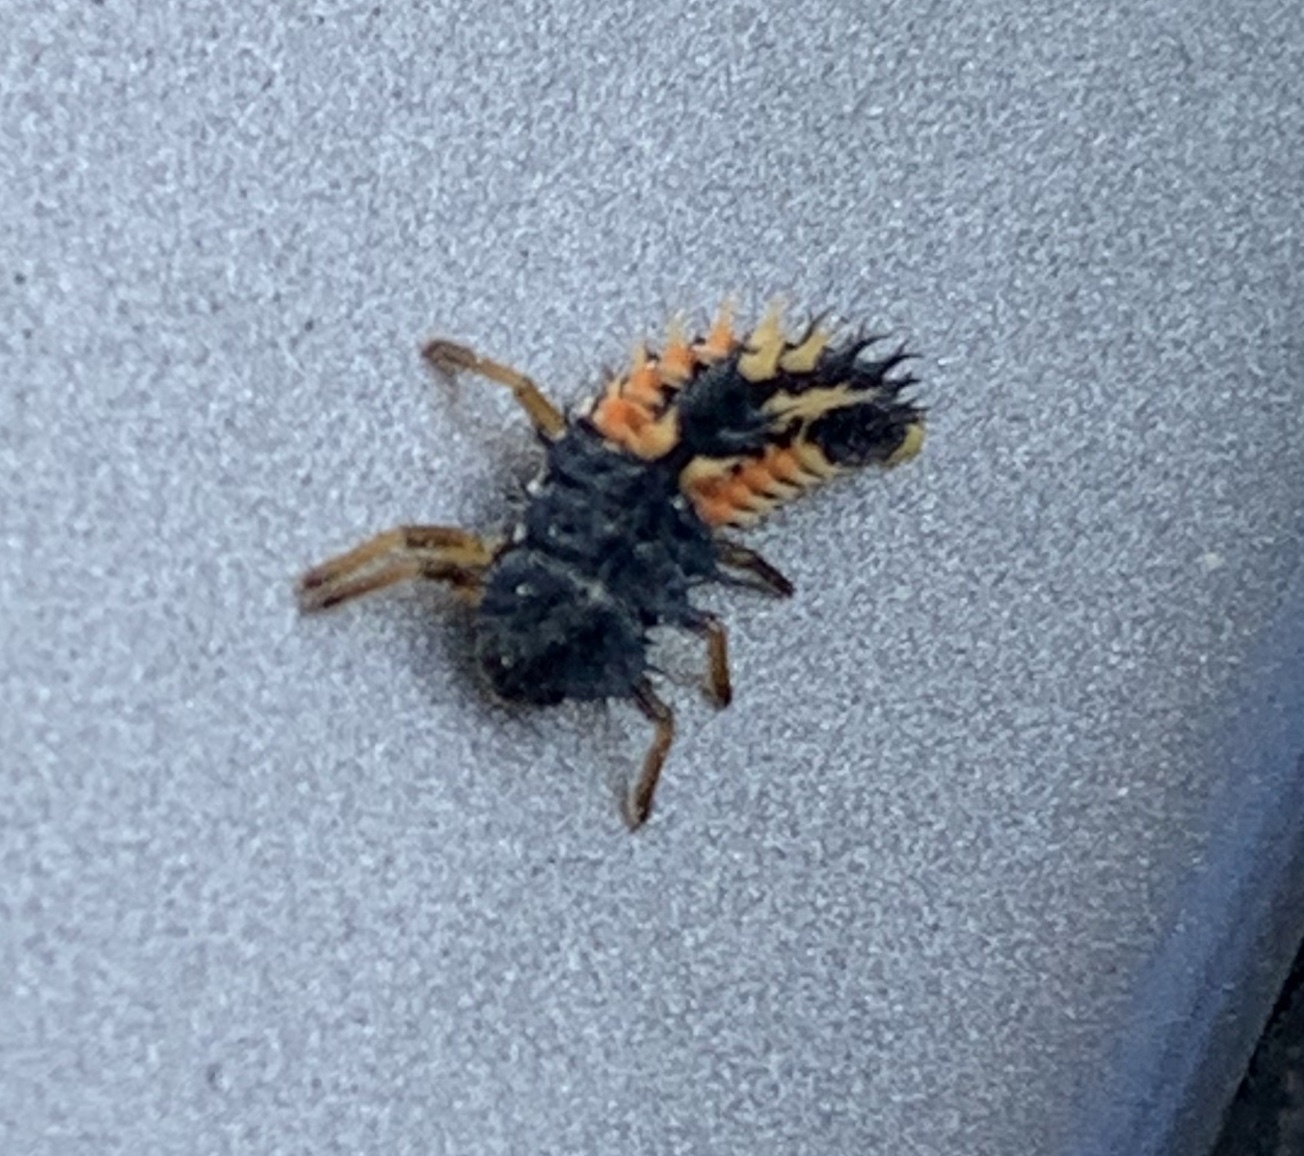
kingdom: Animalia
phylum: Arthropoda
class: Insecta
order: Coleoptera
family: Coccinellidae
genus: Harmonia
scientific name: Harmonia axyridis
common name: Harlequin ladybird
